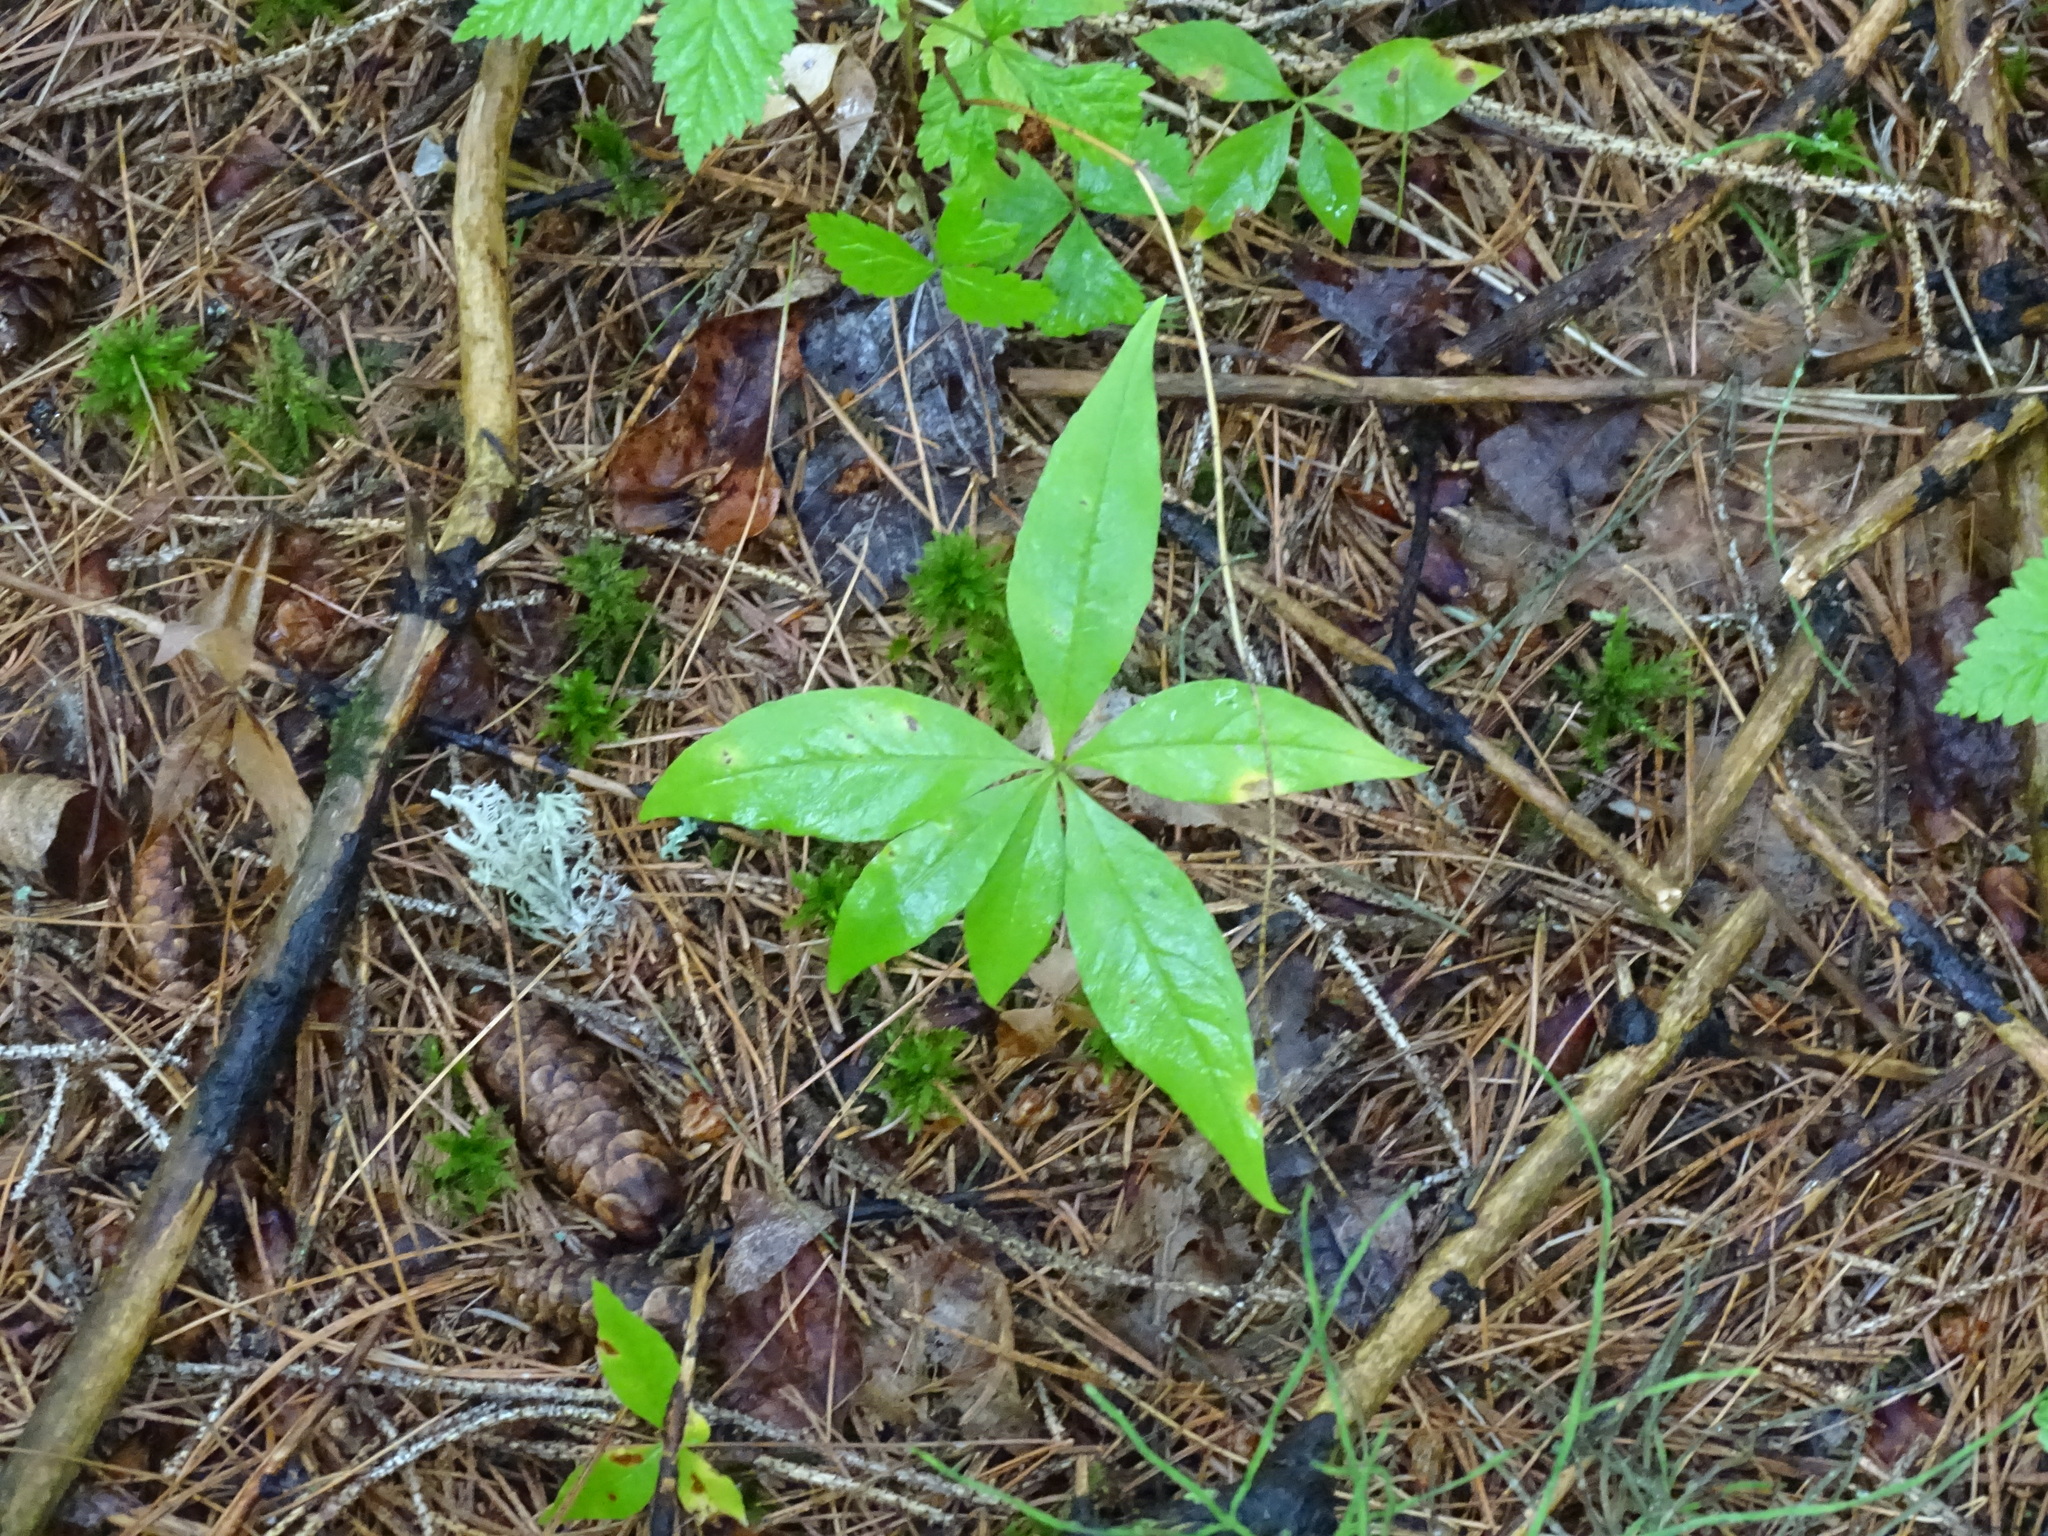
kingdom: Plantae
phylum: Tracheophyta
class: Magnoliopsida
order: Ericales
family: Primulaceae
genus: Lysimachia
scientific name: Lysimachia borealis
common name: American starflower
